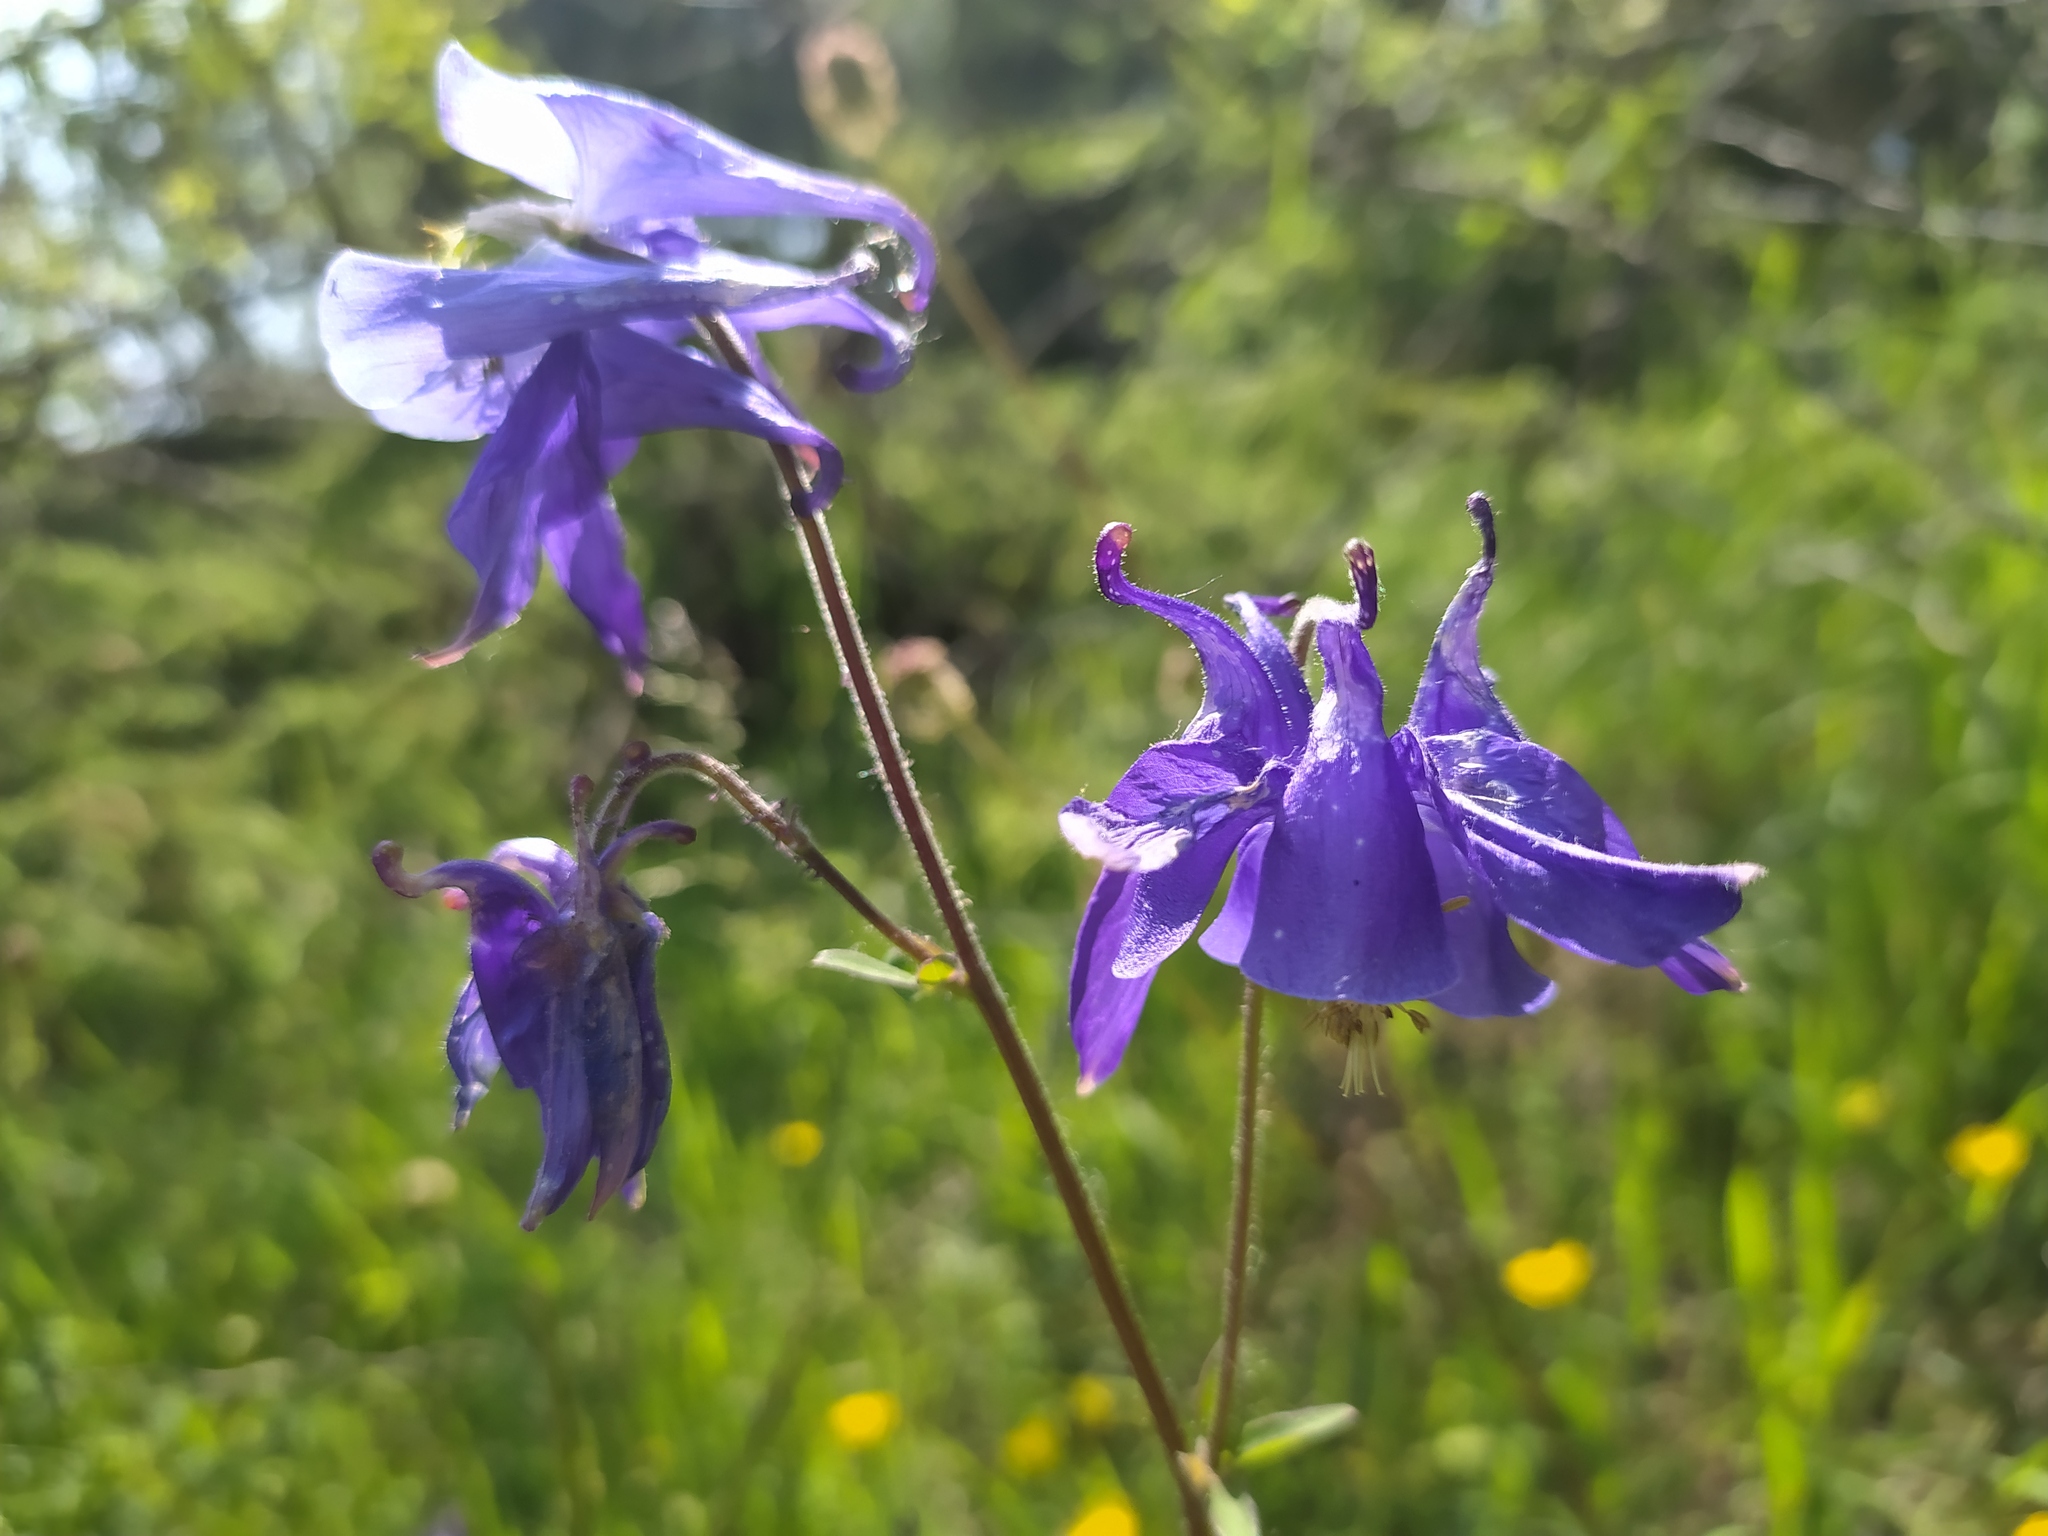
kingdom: Plantae
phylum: Tracheophyta
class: Magnoliopsida
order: Ranunculales
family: Ranunculaceae
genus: Aquilegia
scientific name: Aquilegia vulgaris
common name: Columbine
